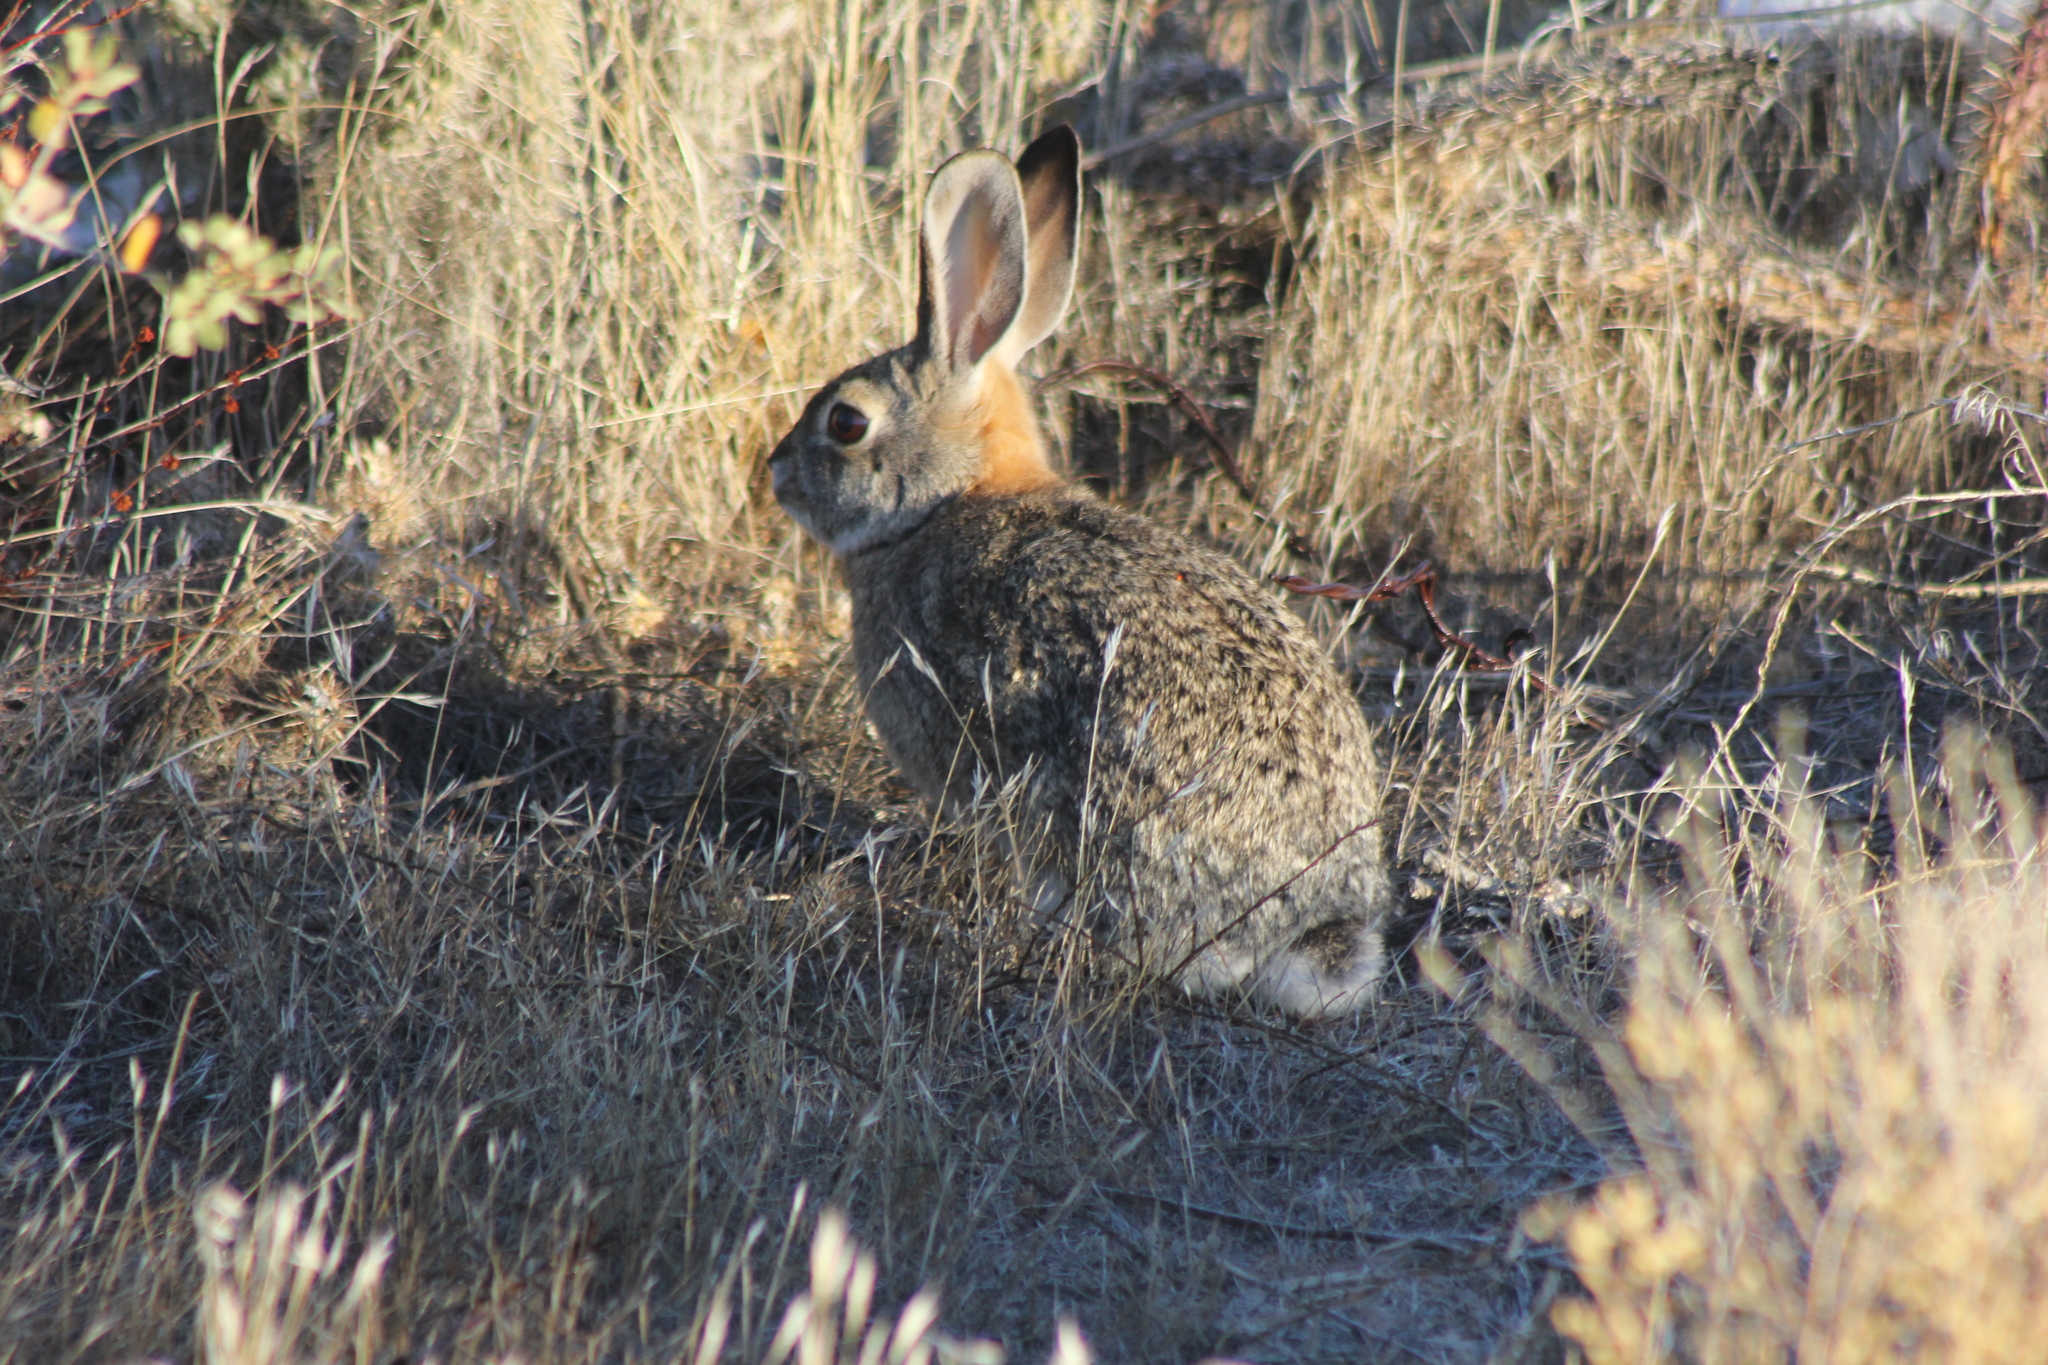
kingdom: Animalia
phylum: Chordata
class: Mammalia
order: Lagomorpha
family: Leporidae
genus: Sylvilagus
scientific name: Sylvilagus bachmani
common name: Brush rabbit
